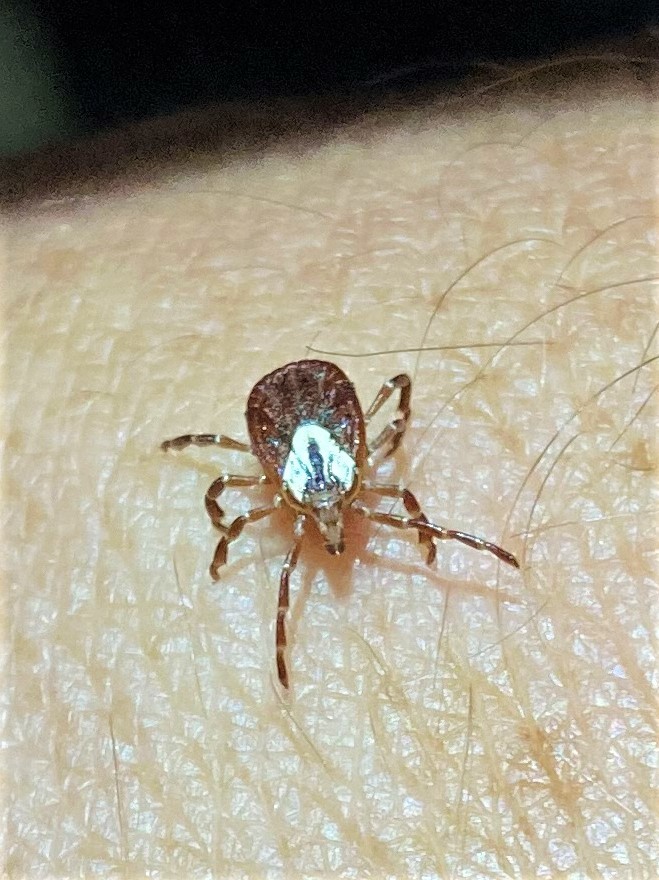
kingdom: Animalia
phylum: Arthropoda
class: Arachnida
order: Ixodida
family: Ixodidae
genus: Amblyomma
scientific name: Amblyomma maculatum
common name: Gulf coast tick
